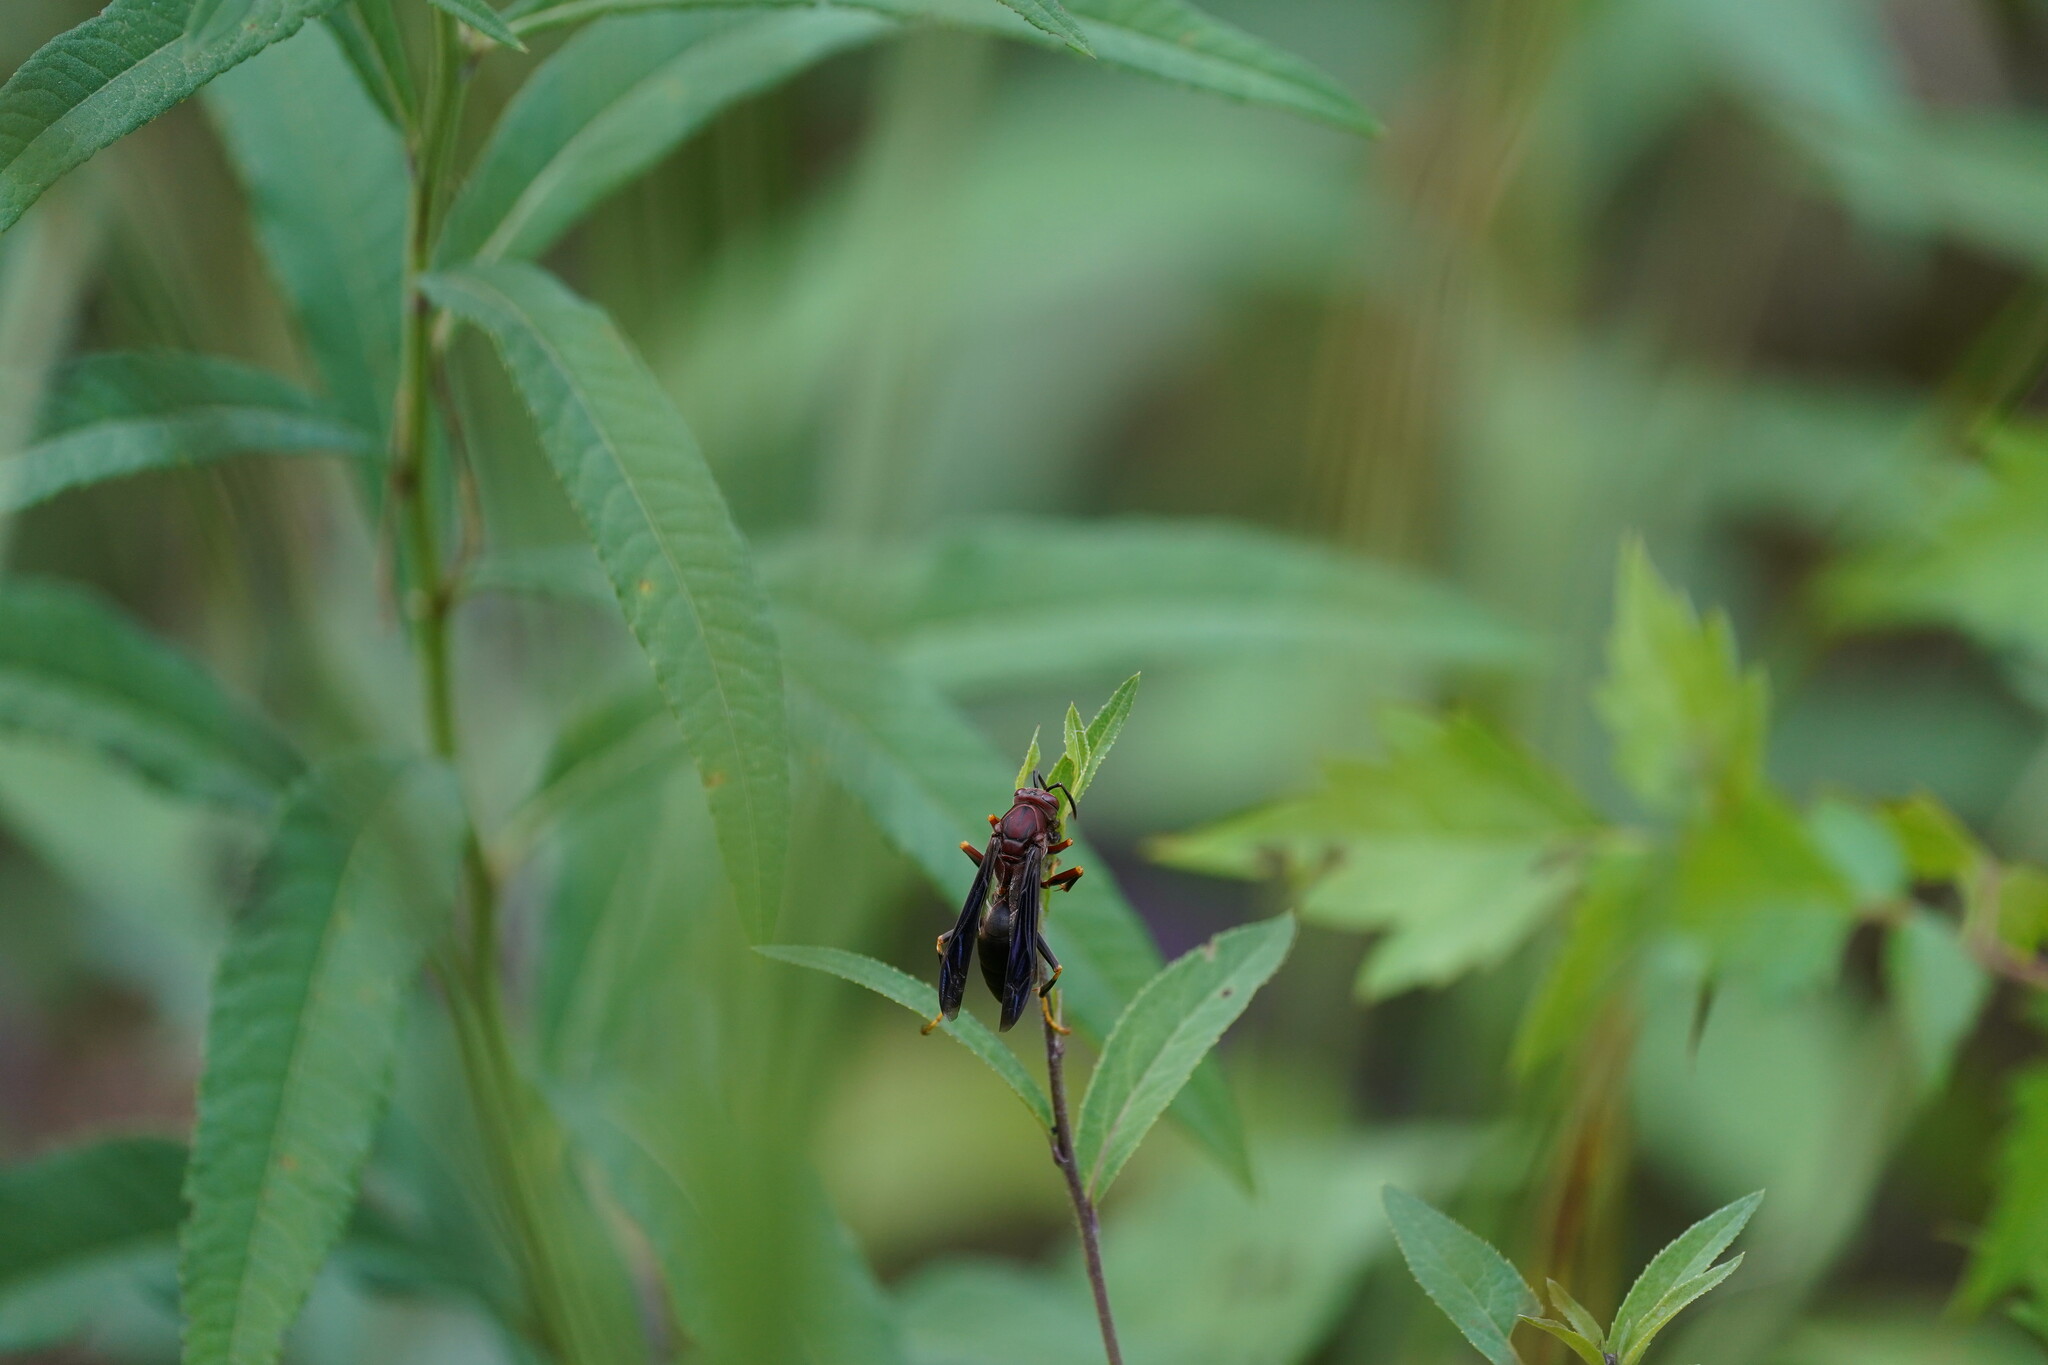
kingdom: Animalia
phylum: Arthropoda
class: Insecta
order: Hymenoptera
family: Eumenidae
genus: Polistes
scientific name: Polistes metricus
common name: Metric paper wasp
